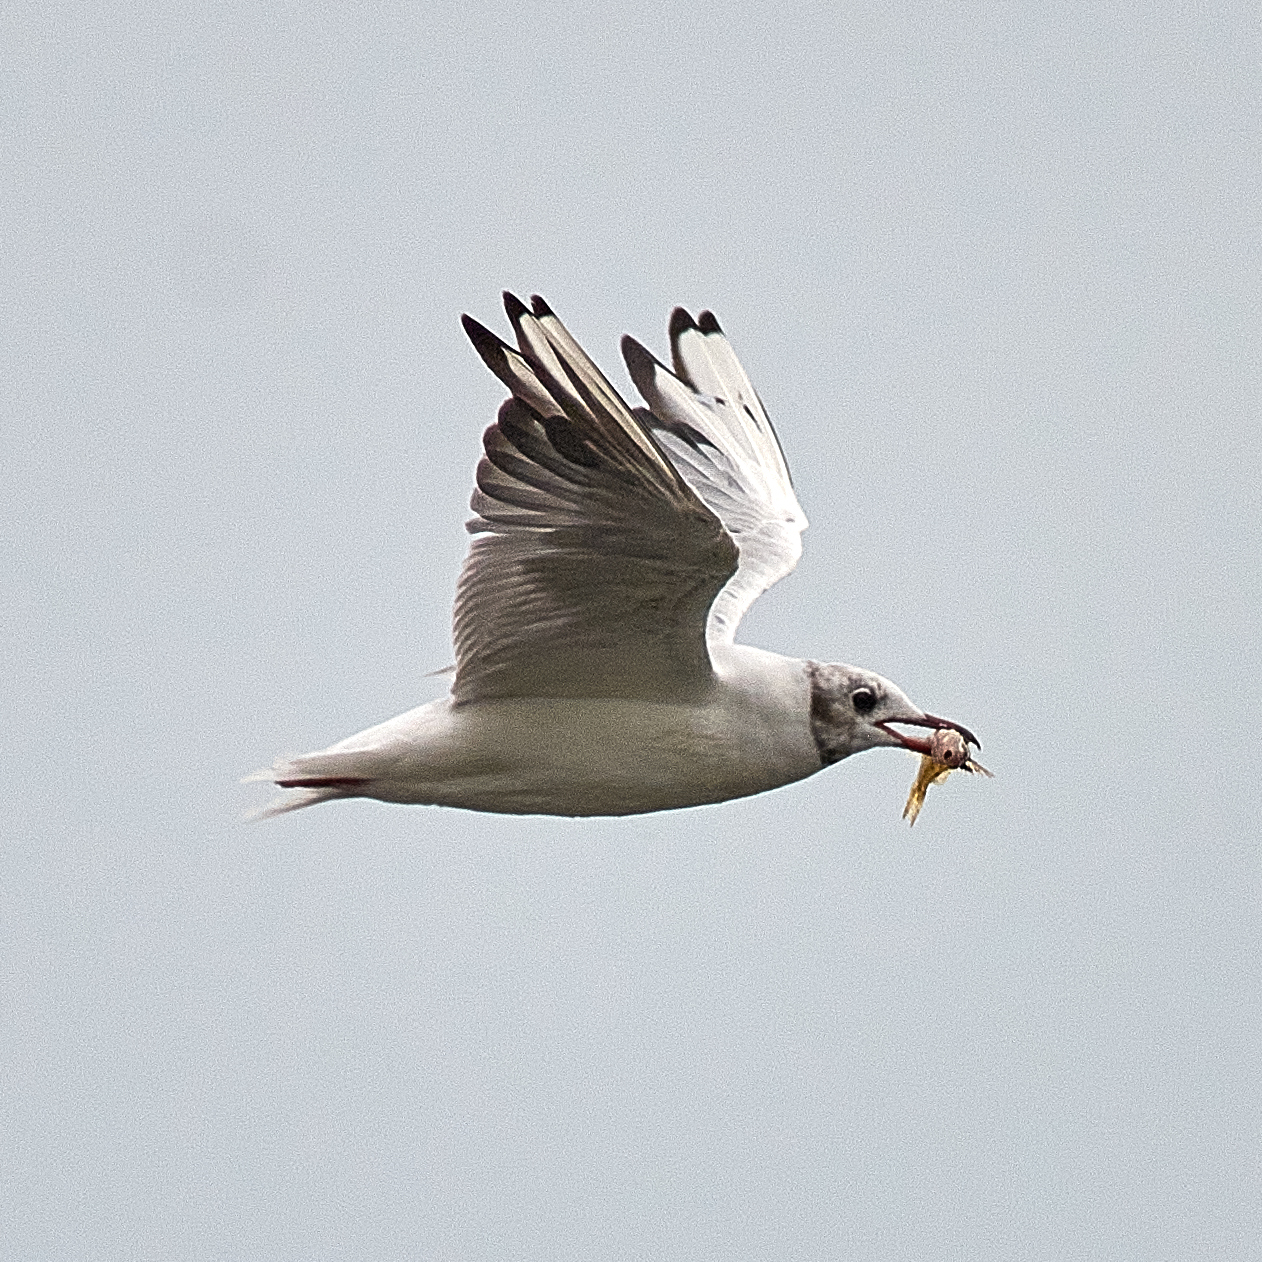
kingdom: Animalia
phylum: Chordata
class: Aves
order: Charadriiformes
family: Laridae
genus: Chroicocephalus
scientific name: Chroicocephalus ridibundus
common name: Black-headed gull
